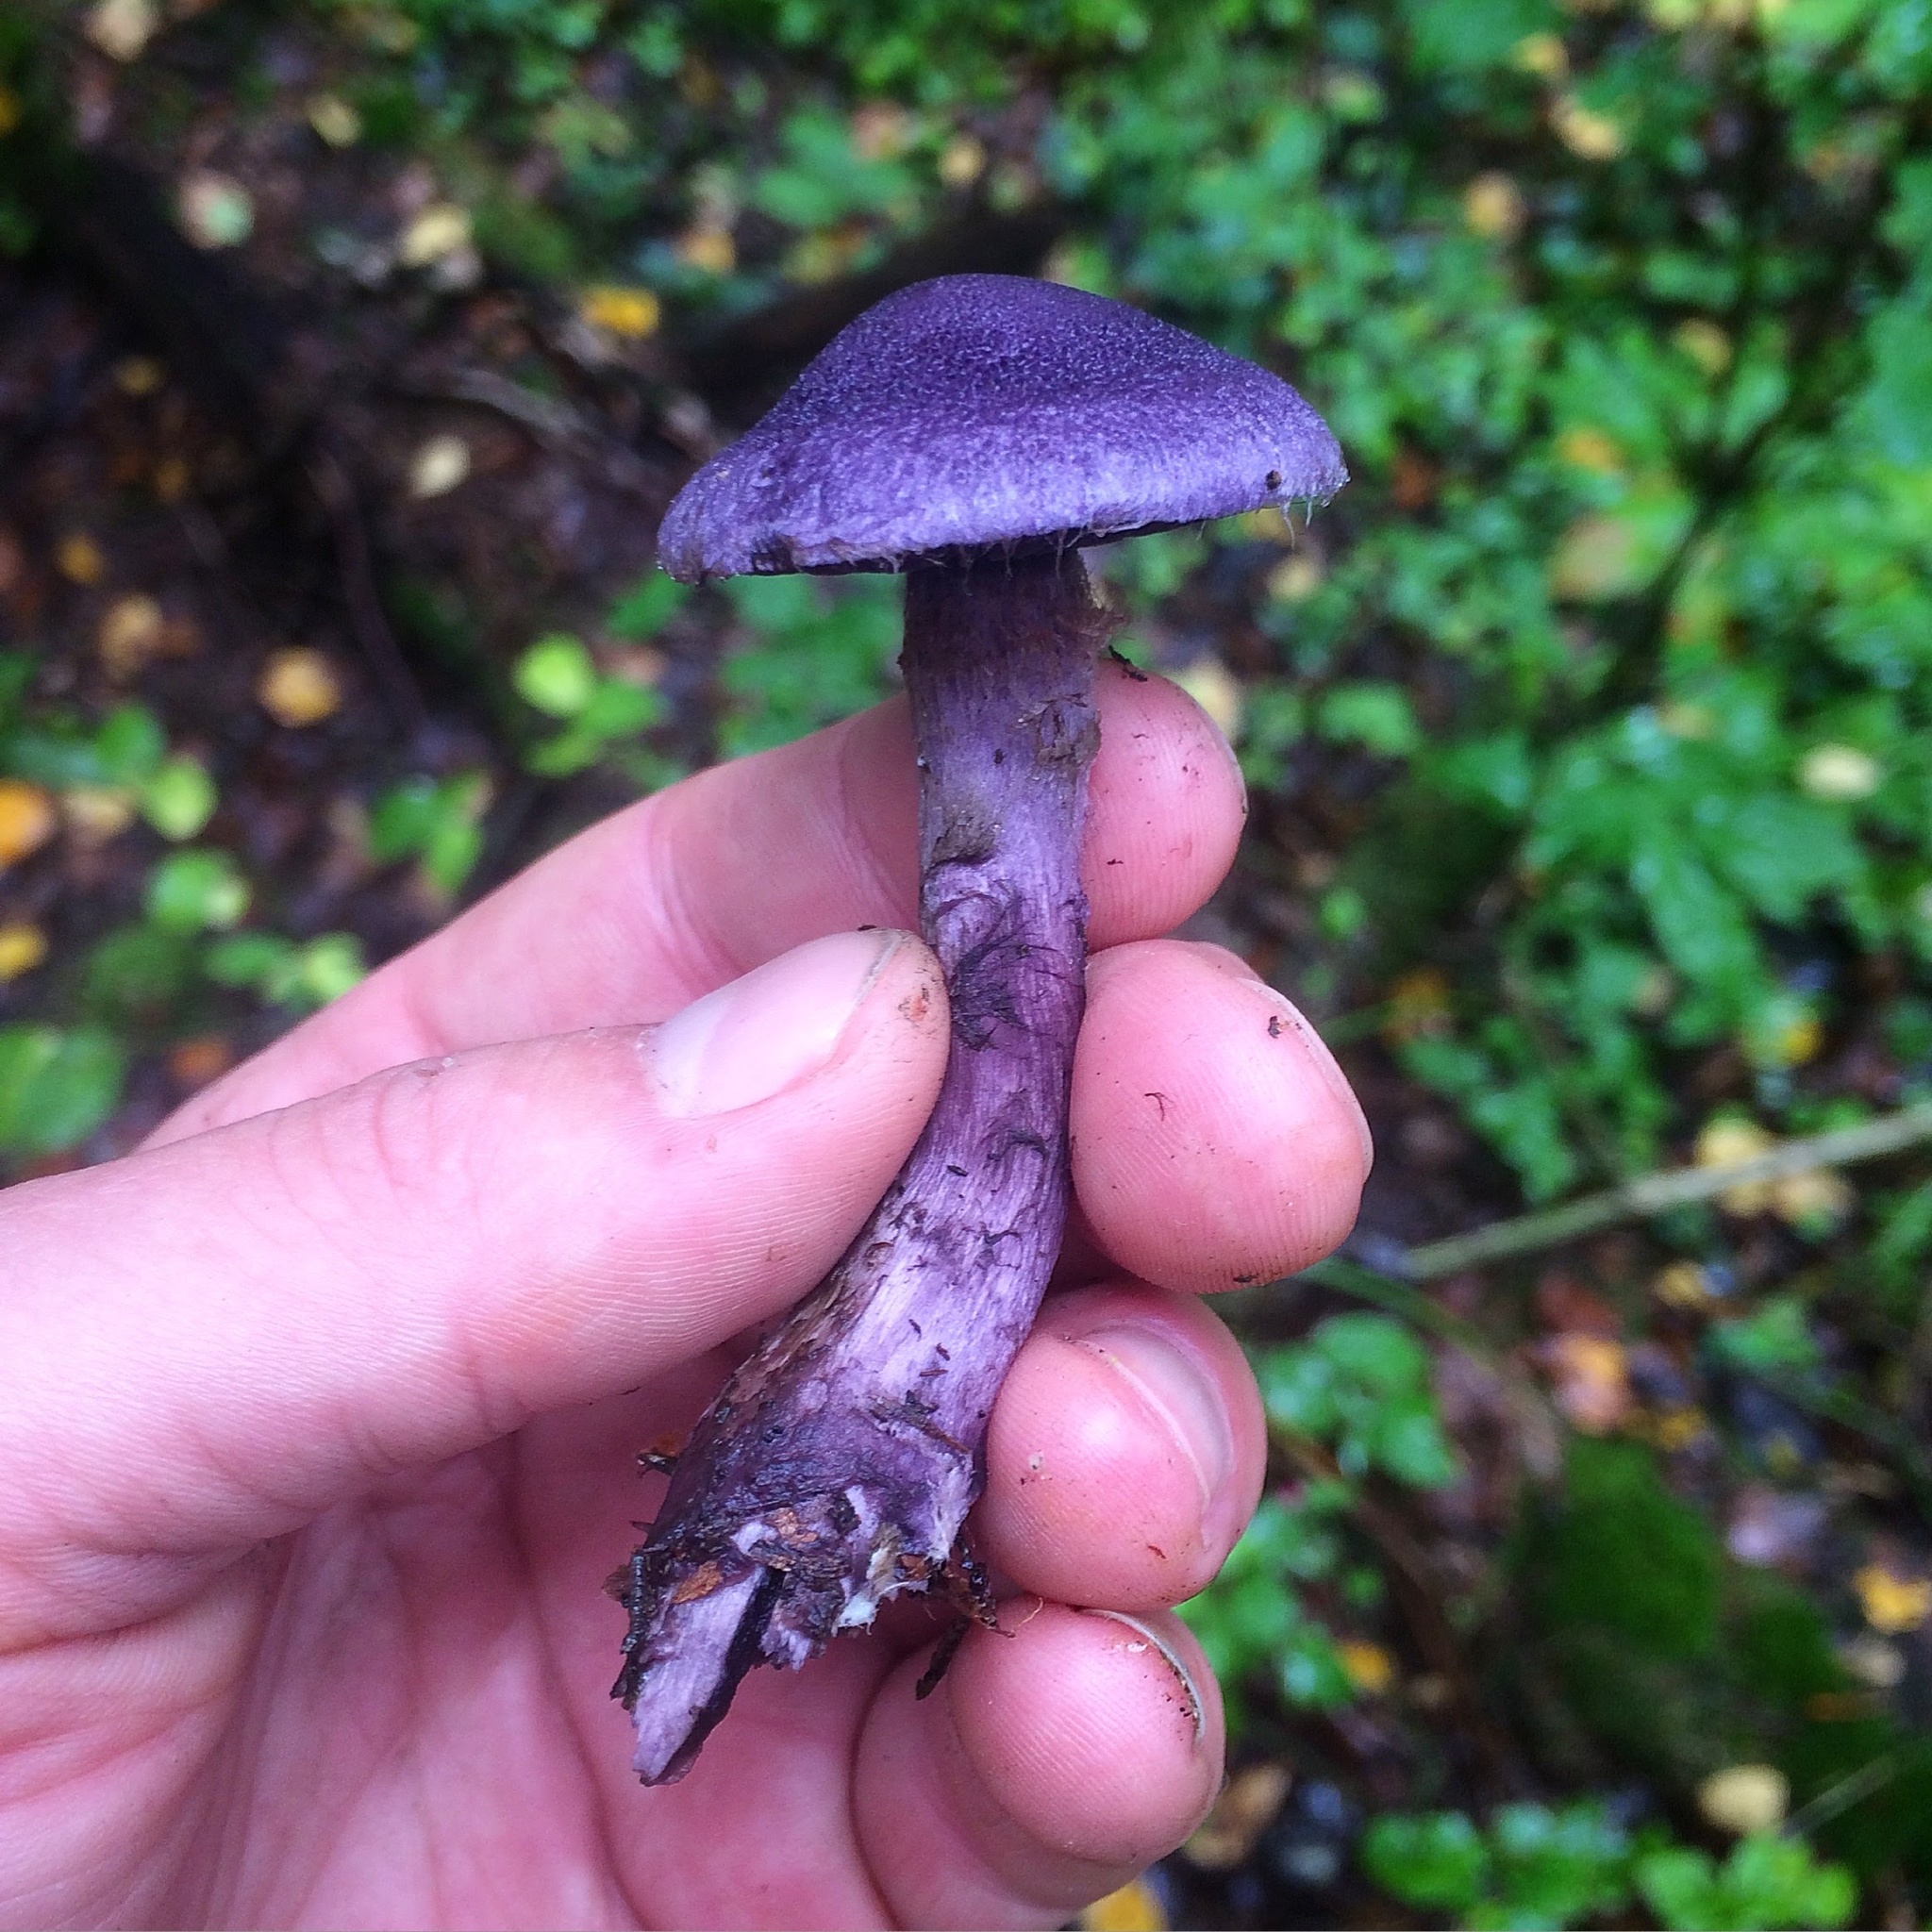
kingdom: Fungi
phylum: Basidiomycota
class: Agaricomycetes
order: Agaricales
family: Cortinariaceae
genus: Cortinarius
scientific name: Cortinarius violaceus
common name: Violet webcap
